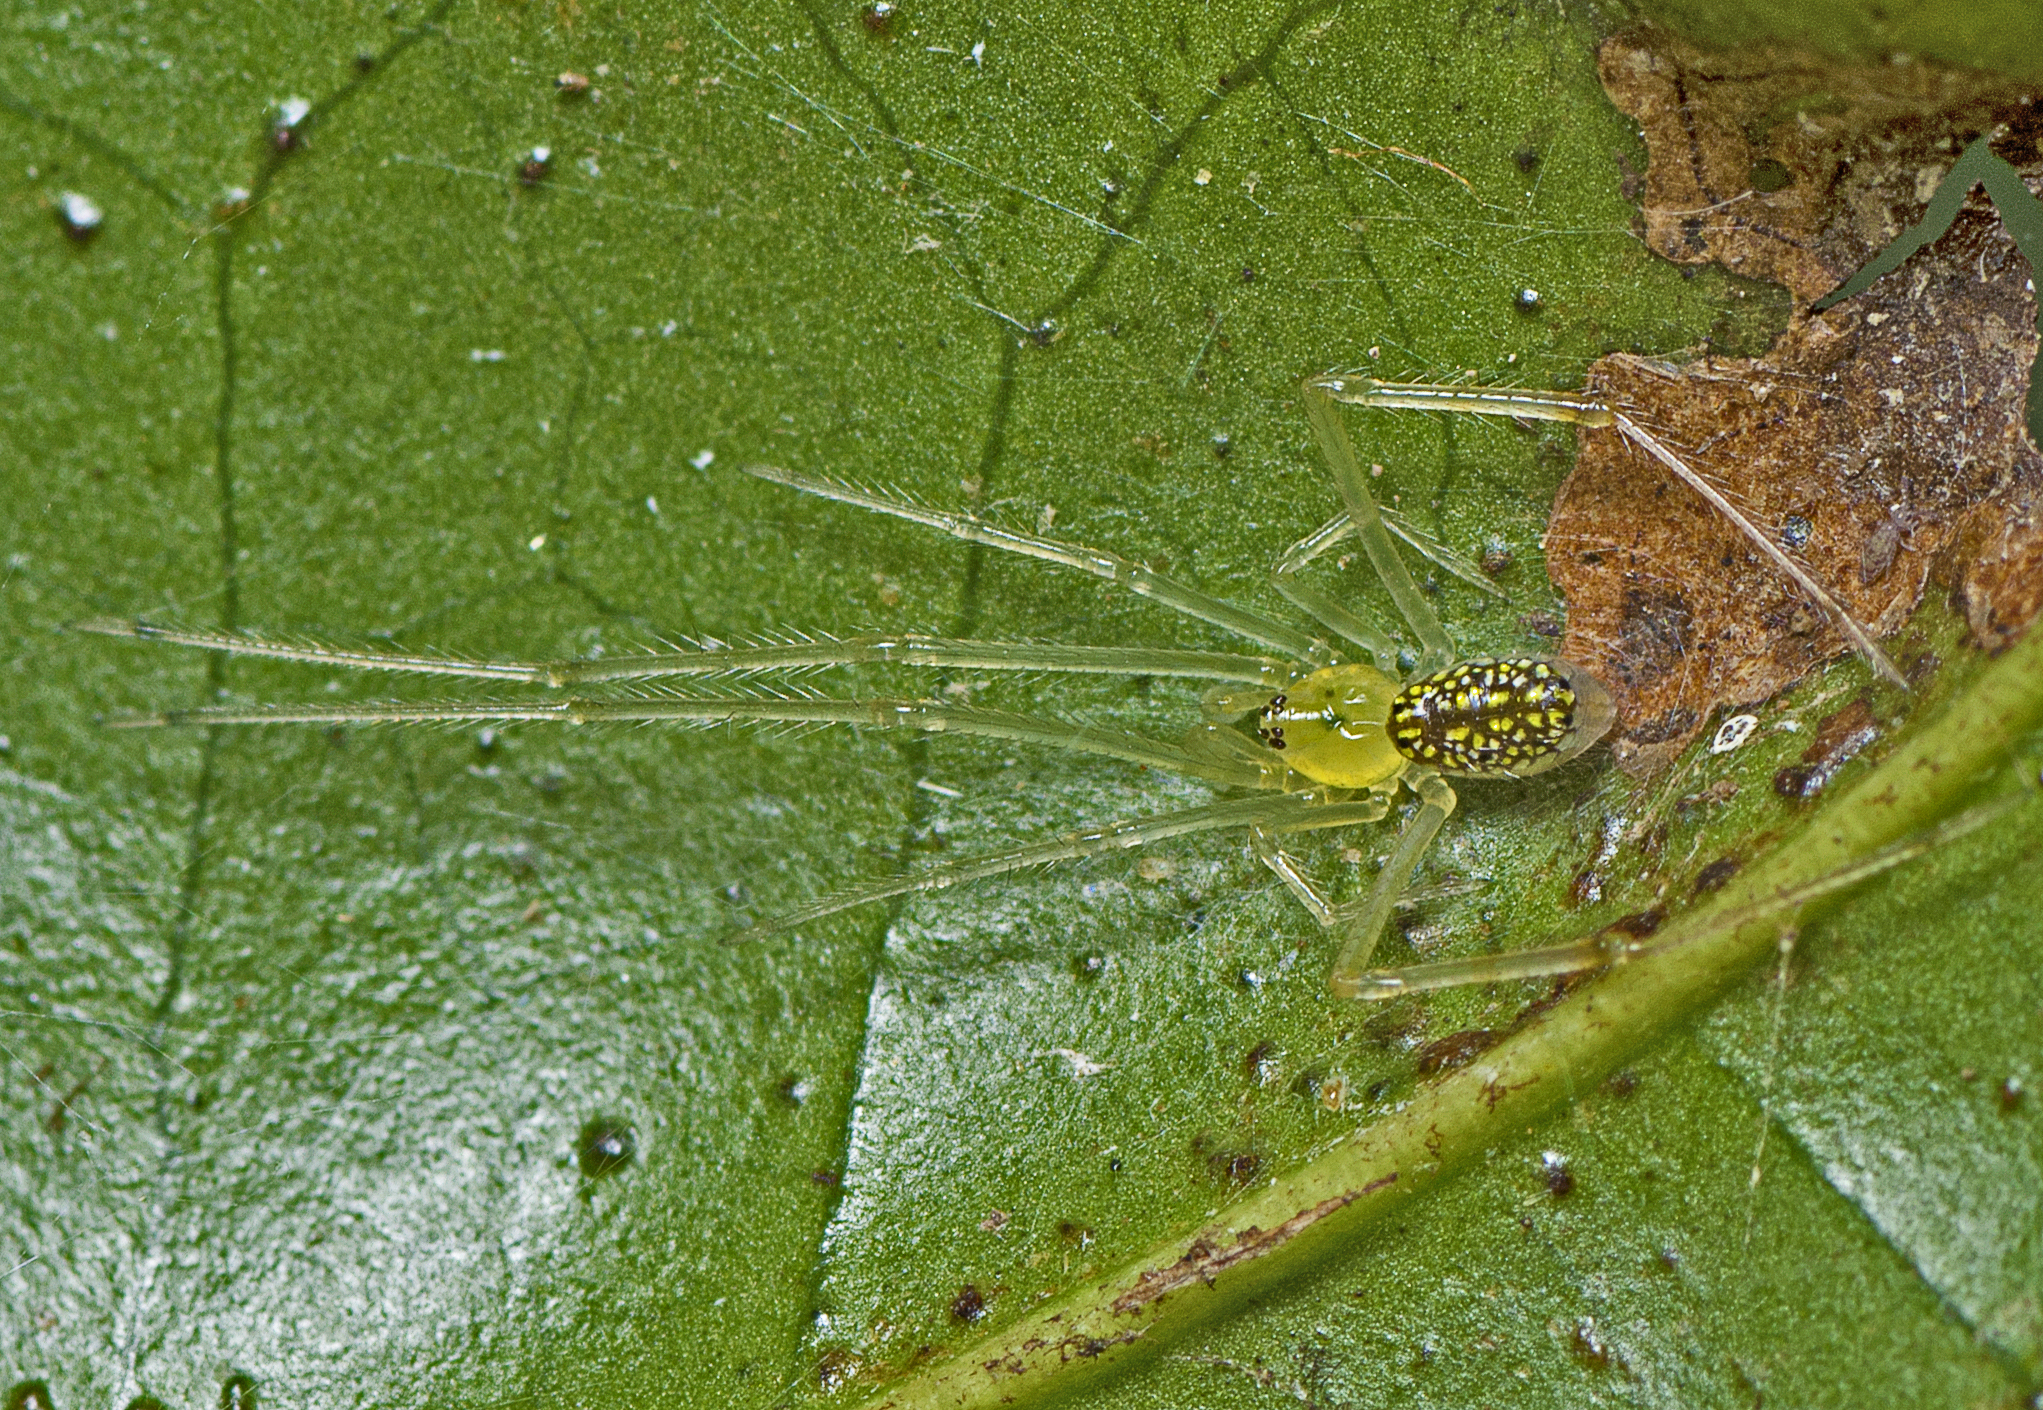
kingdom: Animalia
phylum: Arthropoda
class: Arachnida
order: Araneae
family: Theridiidae
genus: Thwaitesia
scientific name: Thwaitesia nigronodosa
